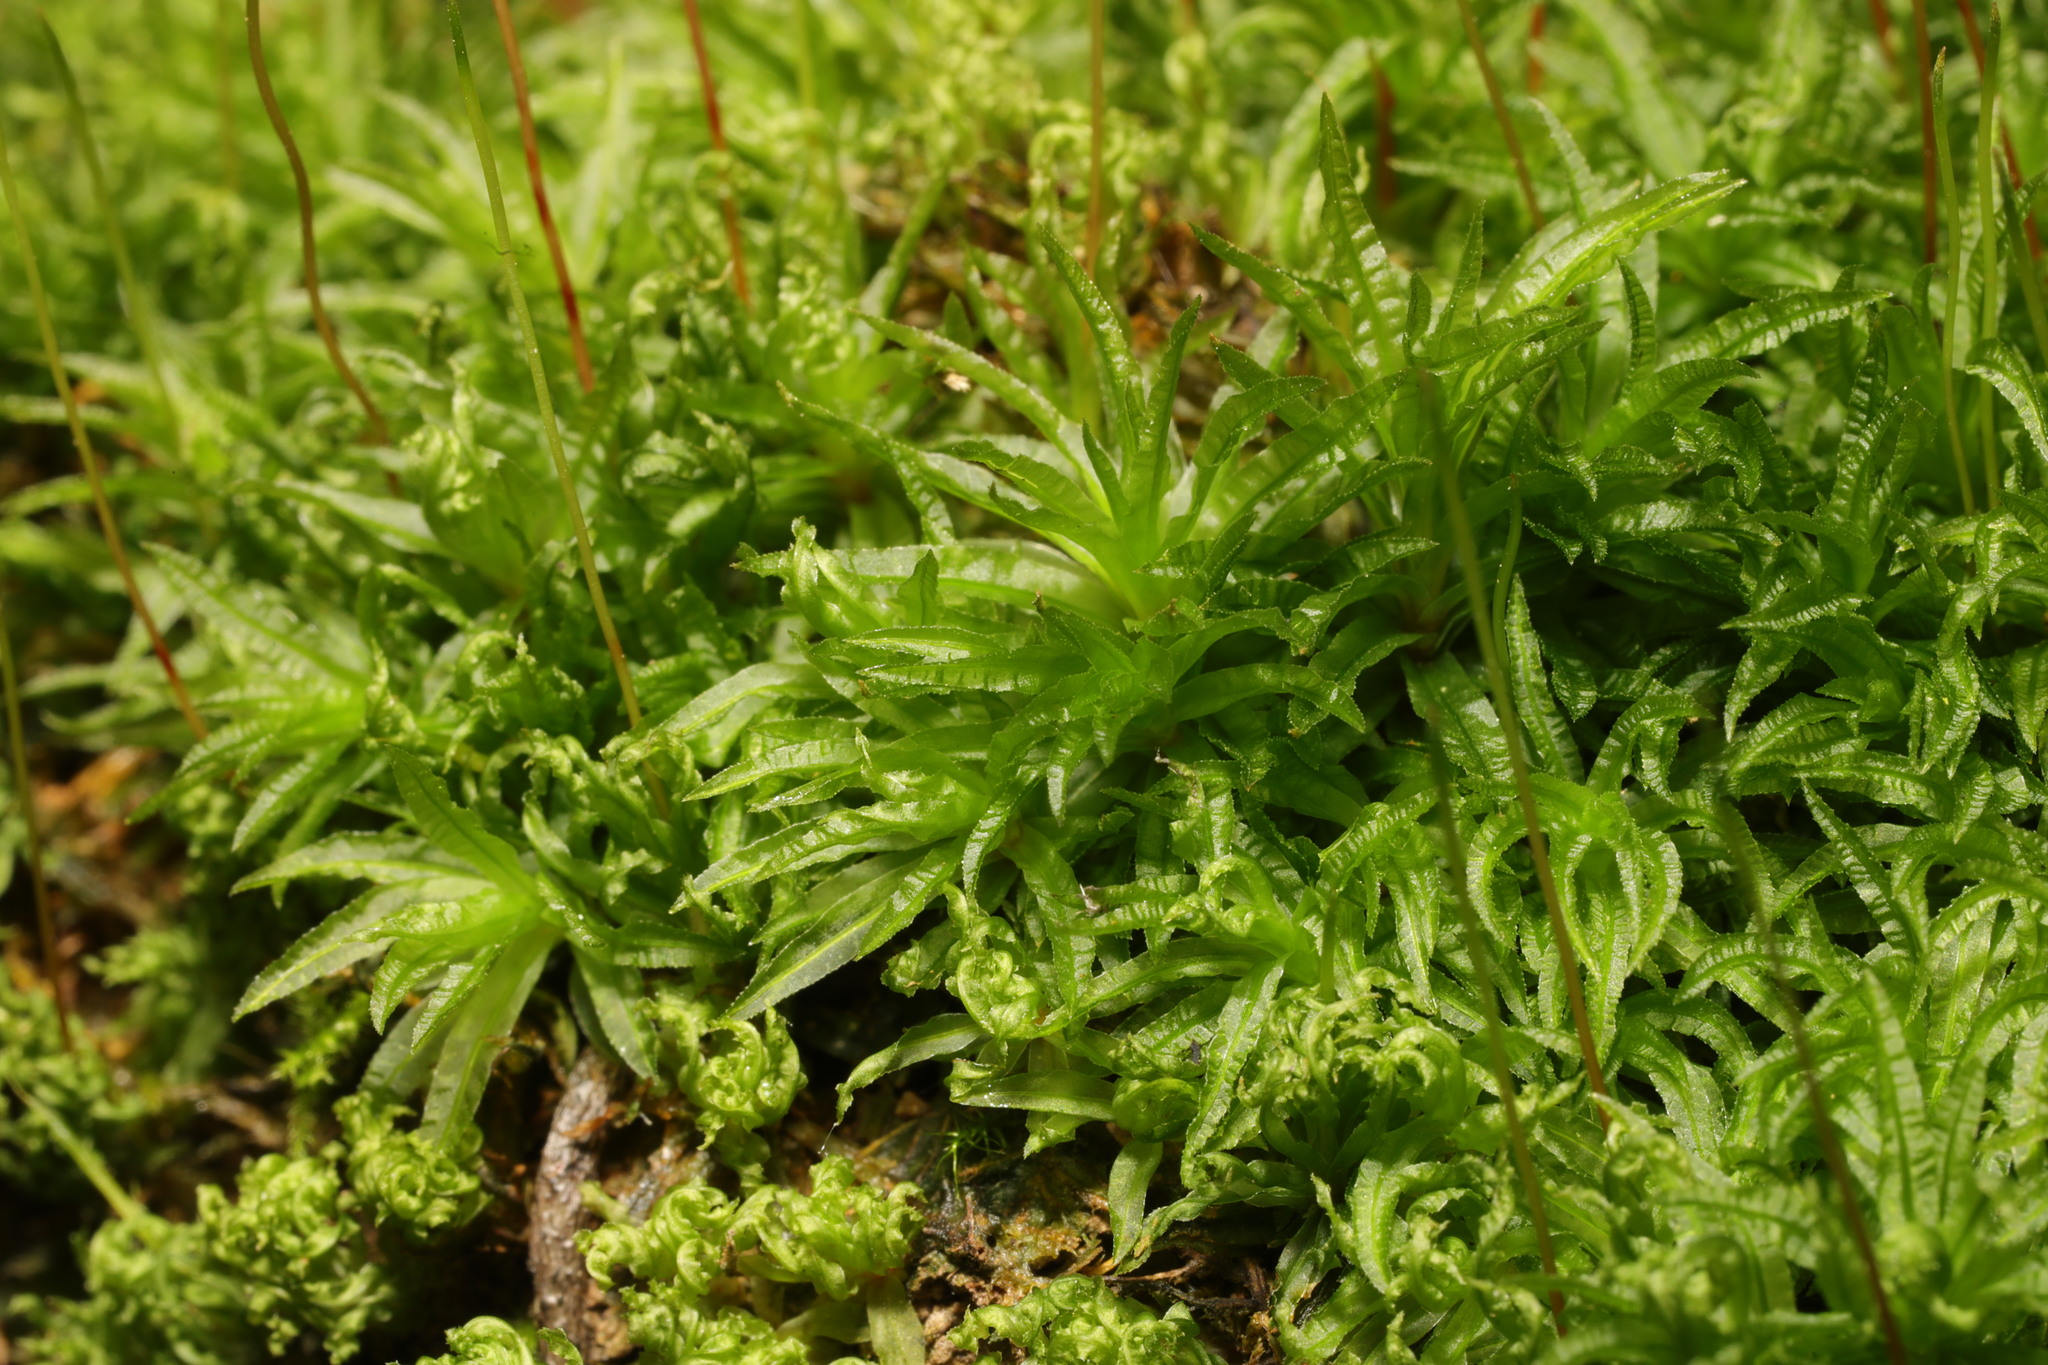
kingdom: Plantae
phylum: Bryophyta
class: Polytrichopsida
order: Polytrichales
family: Polytrichaceae
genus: Atrichum
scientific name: Atrichum undulatum
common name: Common smoothcap
